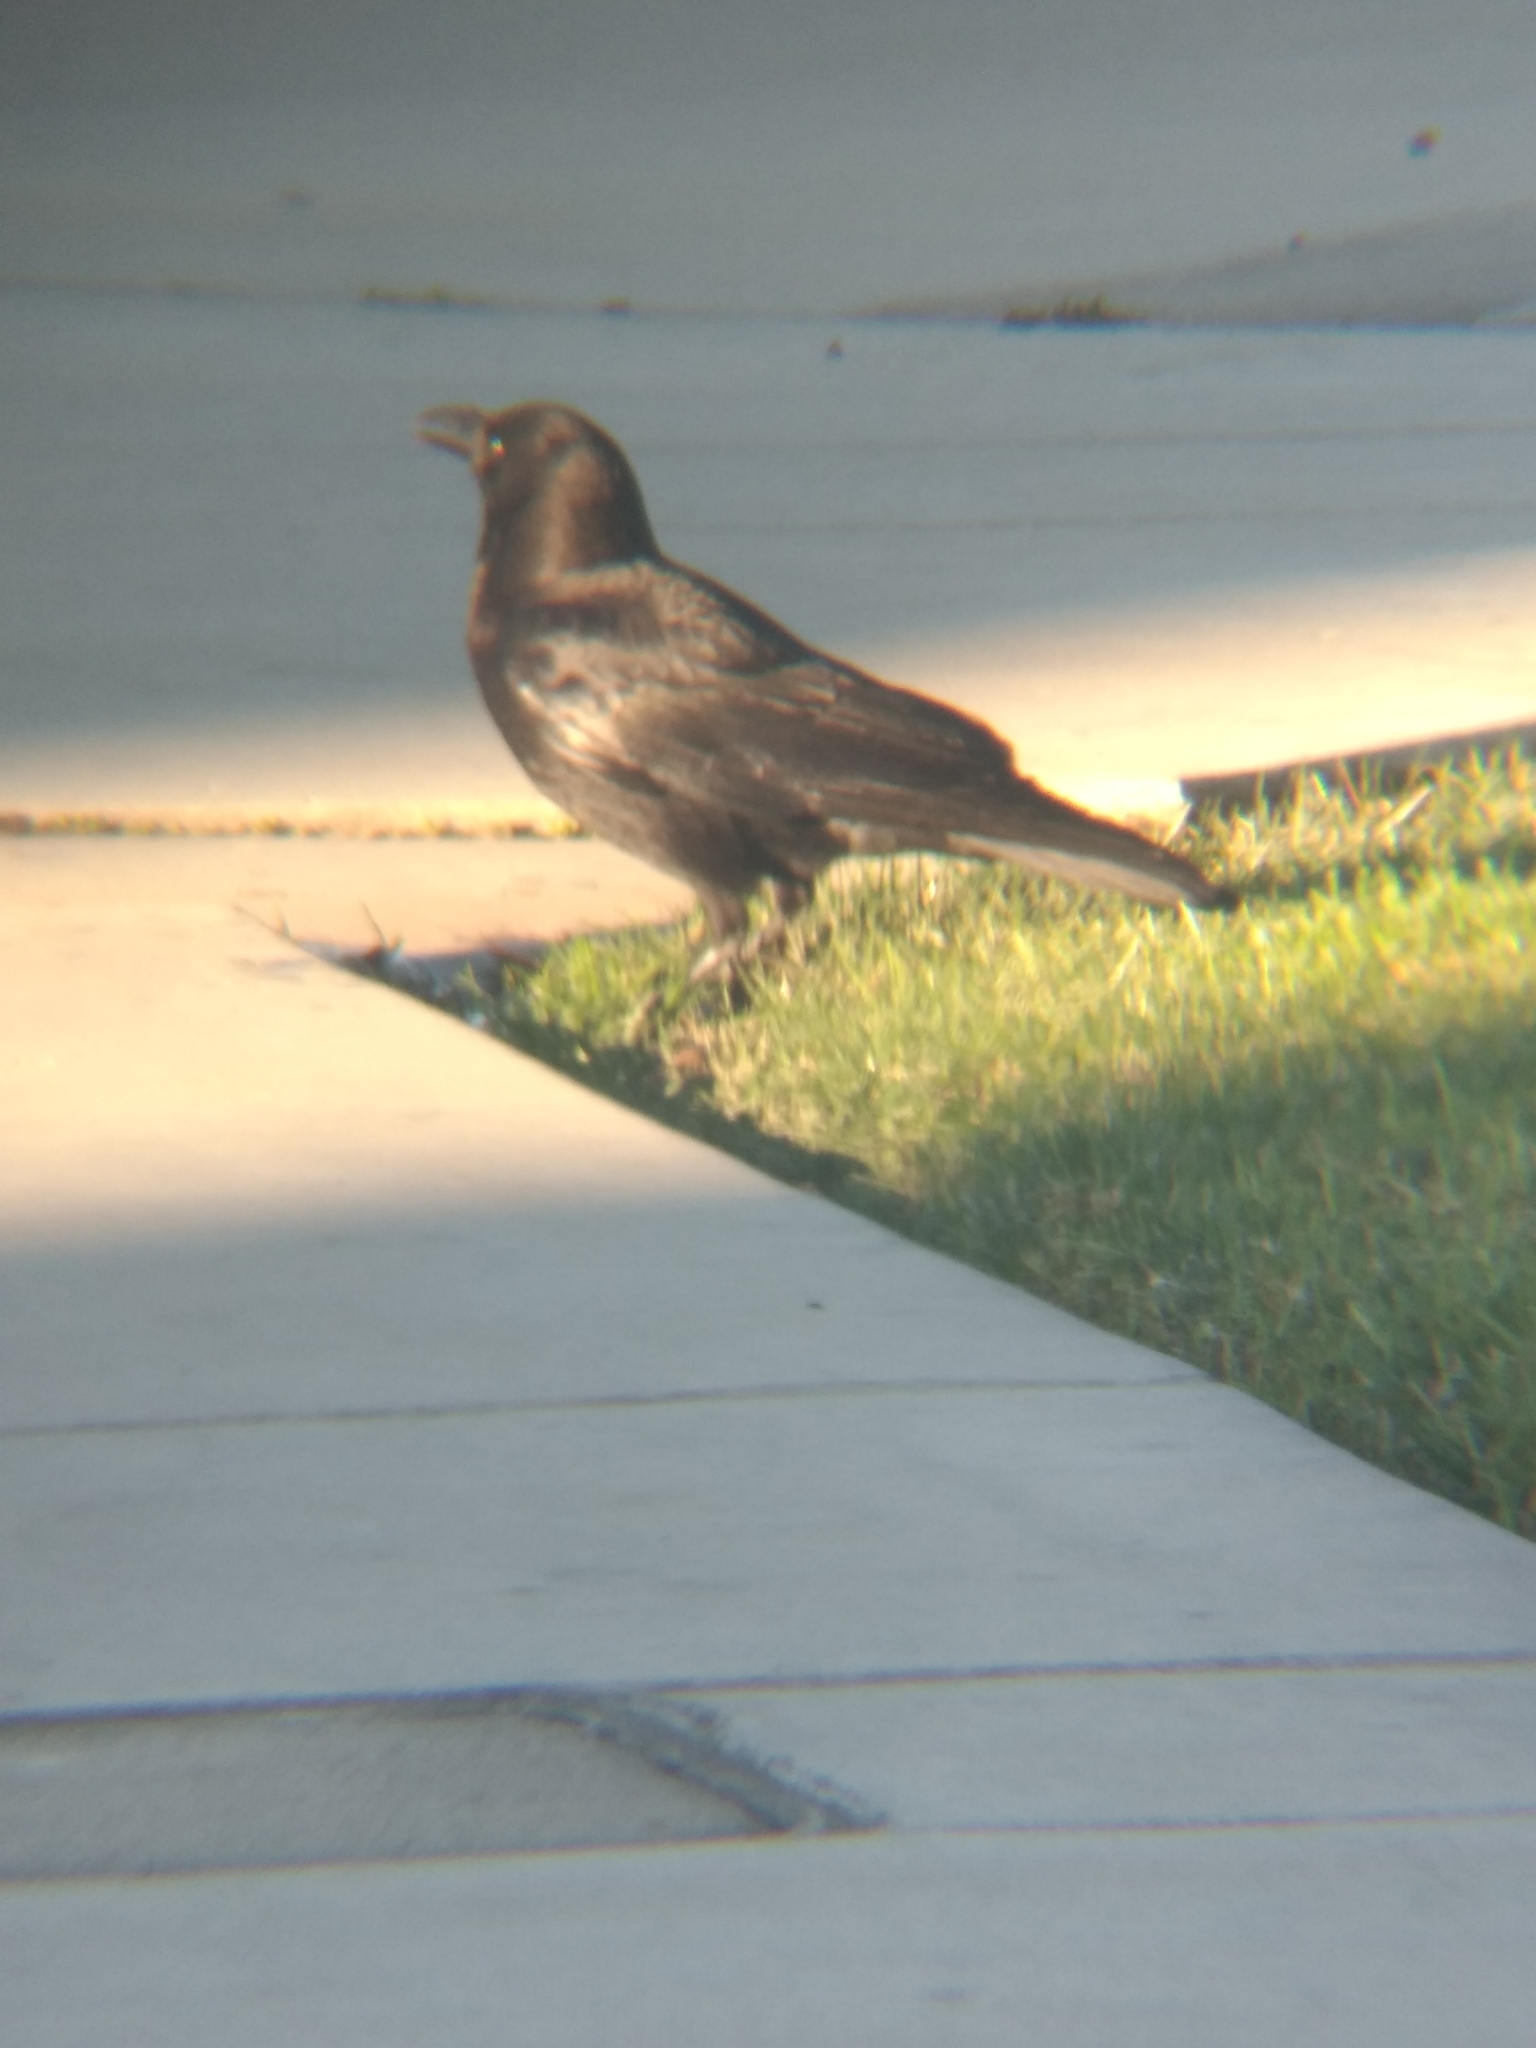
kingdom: Animalia
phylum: Chordata
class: Aves
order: Passeriformes
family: Corvidae
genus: Corvus
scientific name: Corvus brachyrhynchos
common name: American crow
